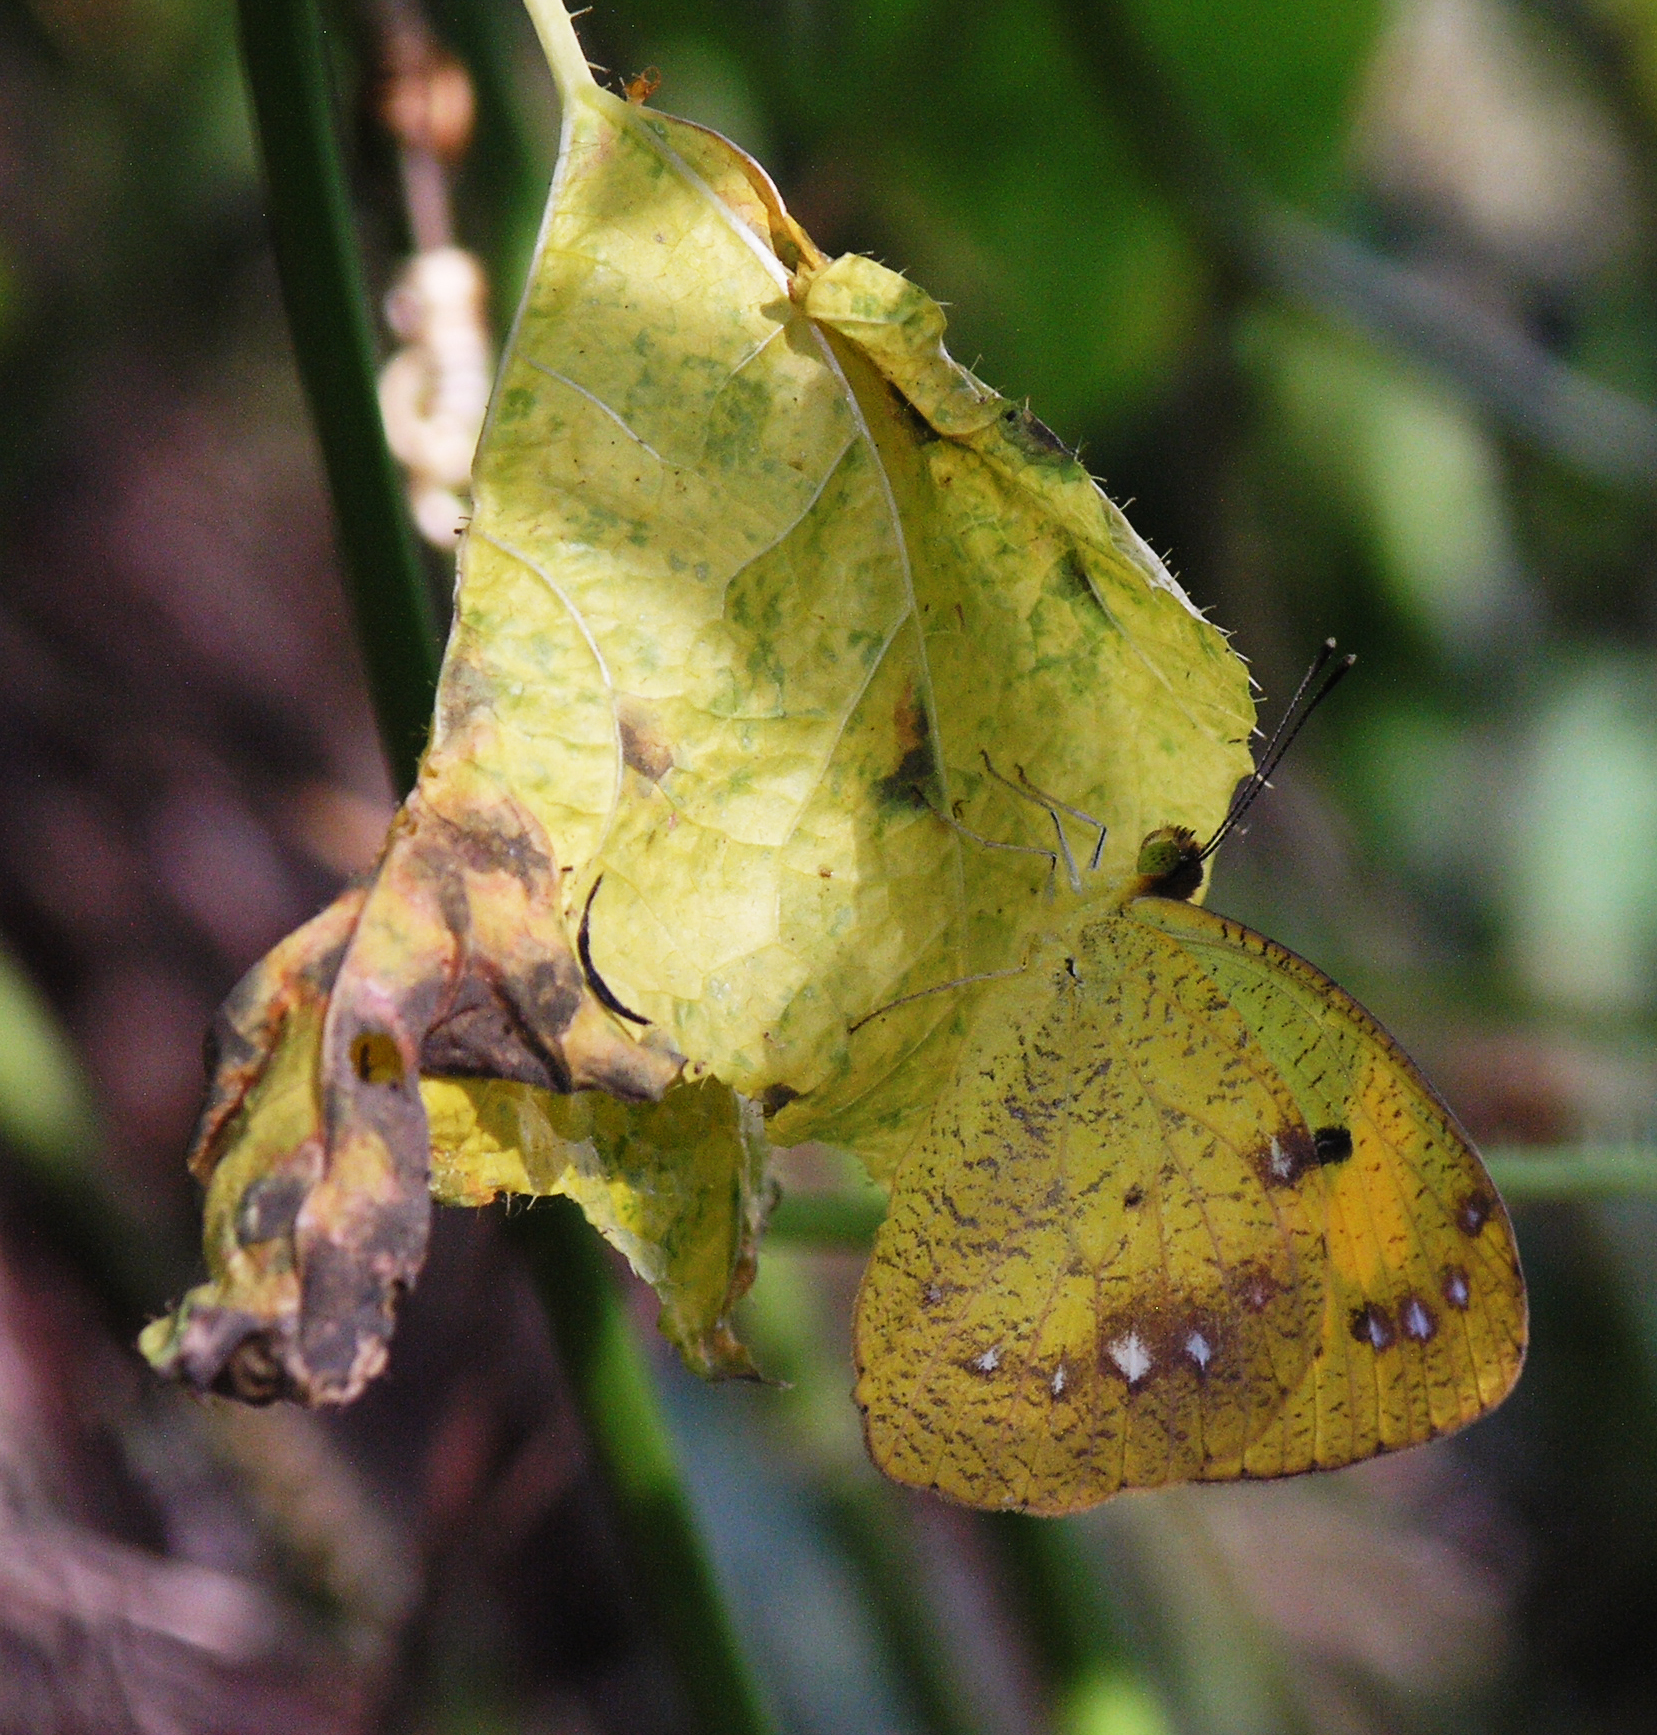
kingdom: Animalia
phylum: Arthropoda
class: Insecta
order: Lepidoptera
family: Pieridae
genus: Ixias
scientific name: Ixias pyrene
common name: Yellow orange tip
